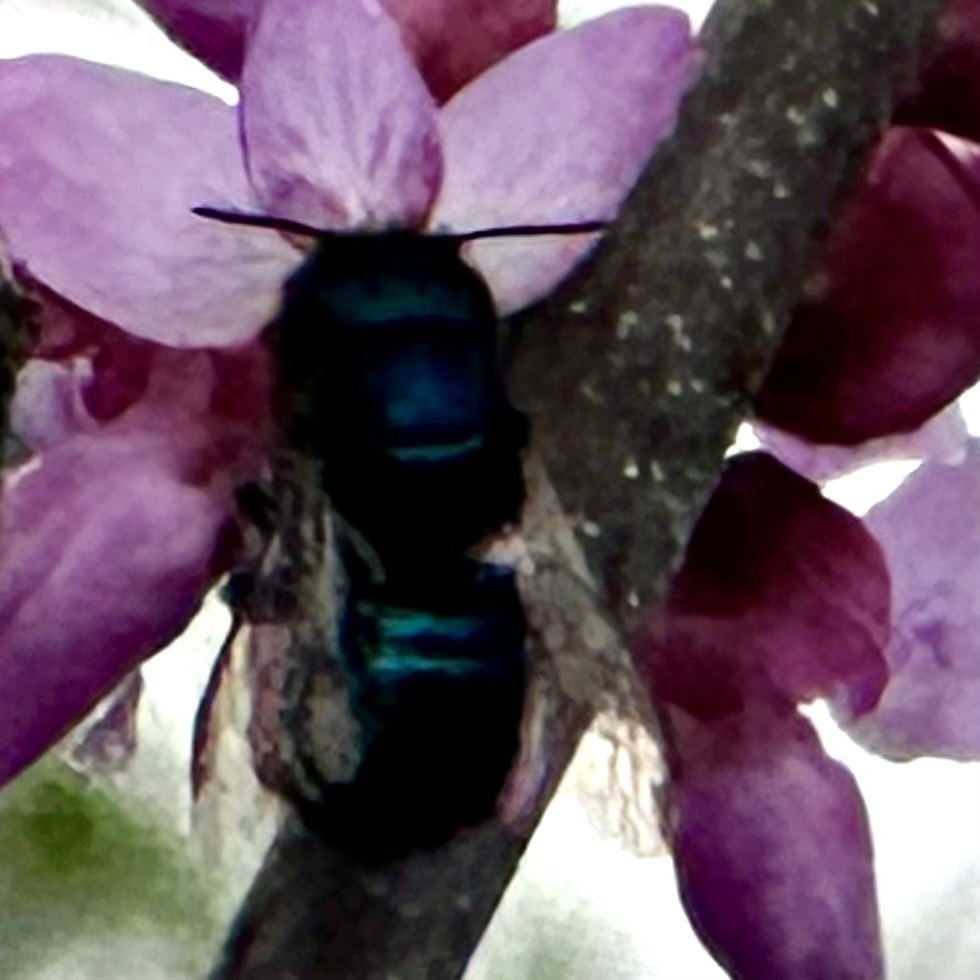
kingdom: Animalia
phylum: Arthropoda
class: Insecta
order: Hymenoptera
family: Megachilidae
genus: Osmia
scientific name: Osmia ribifloris
